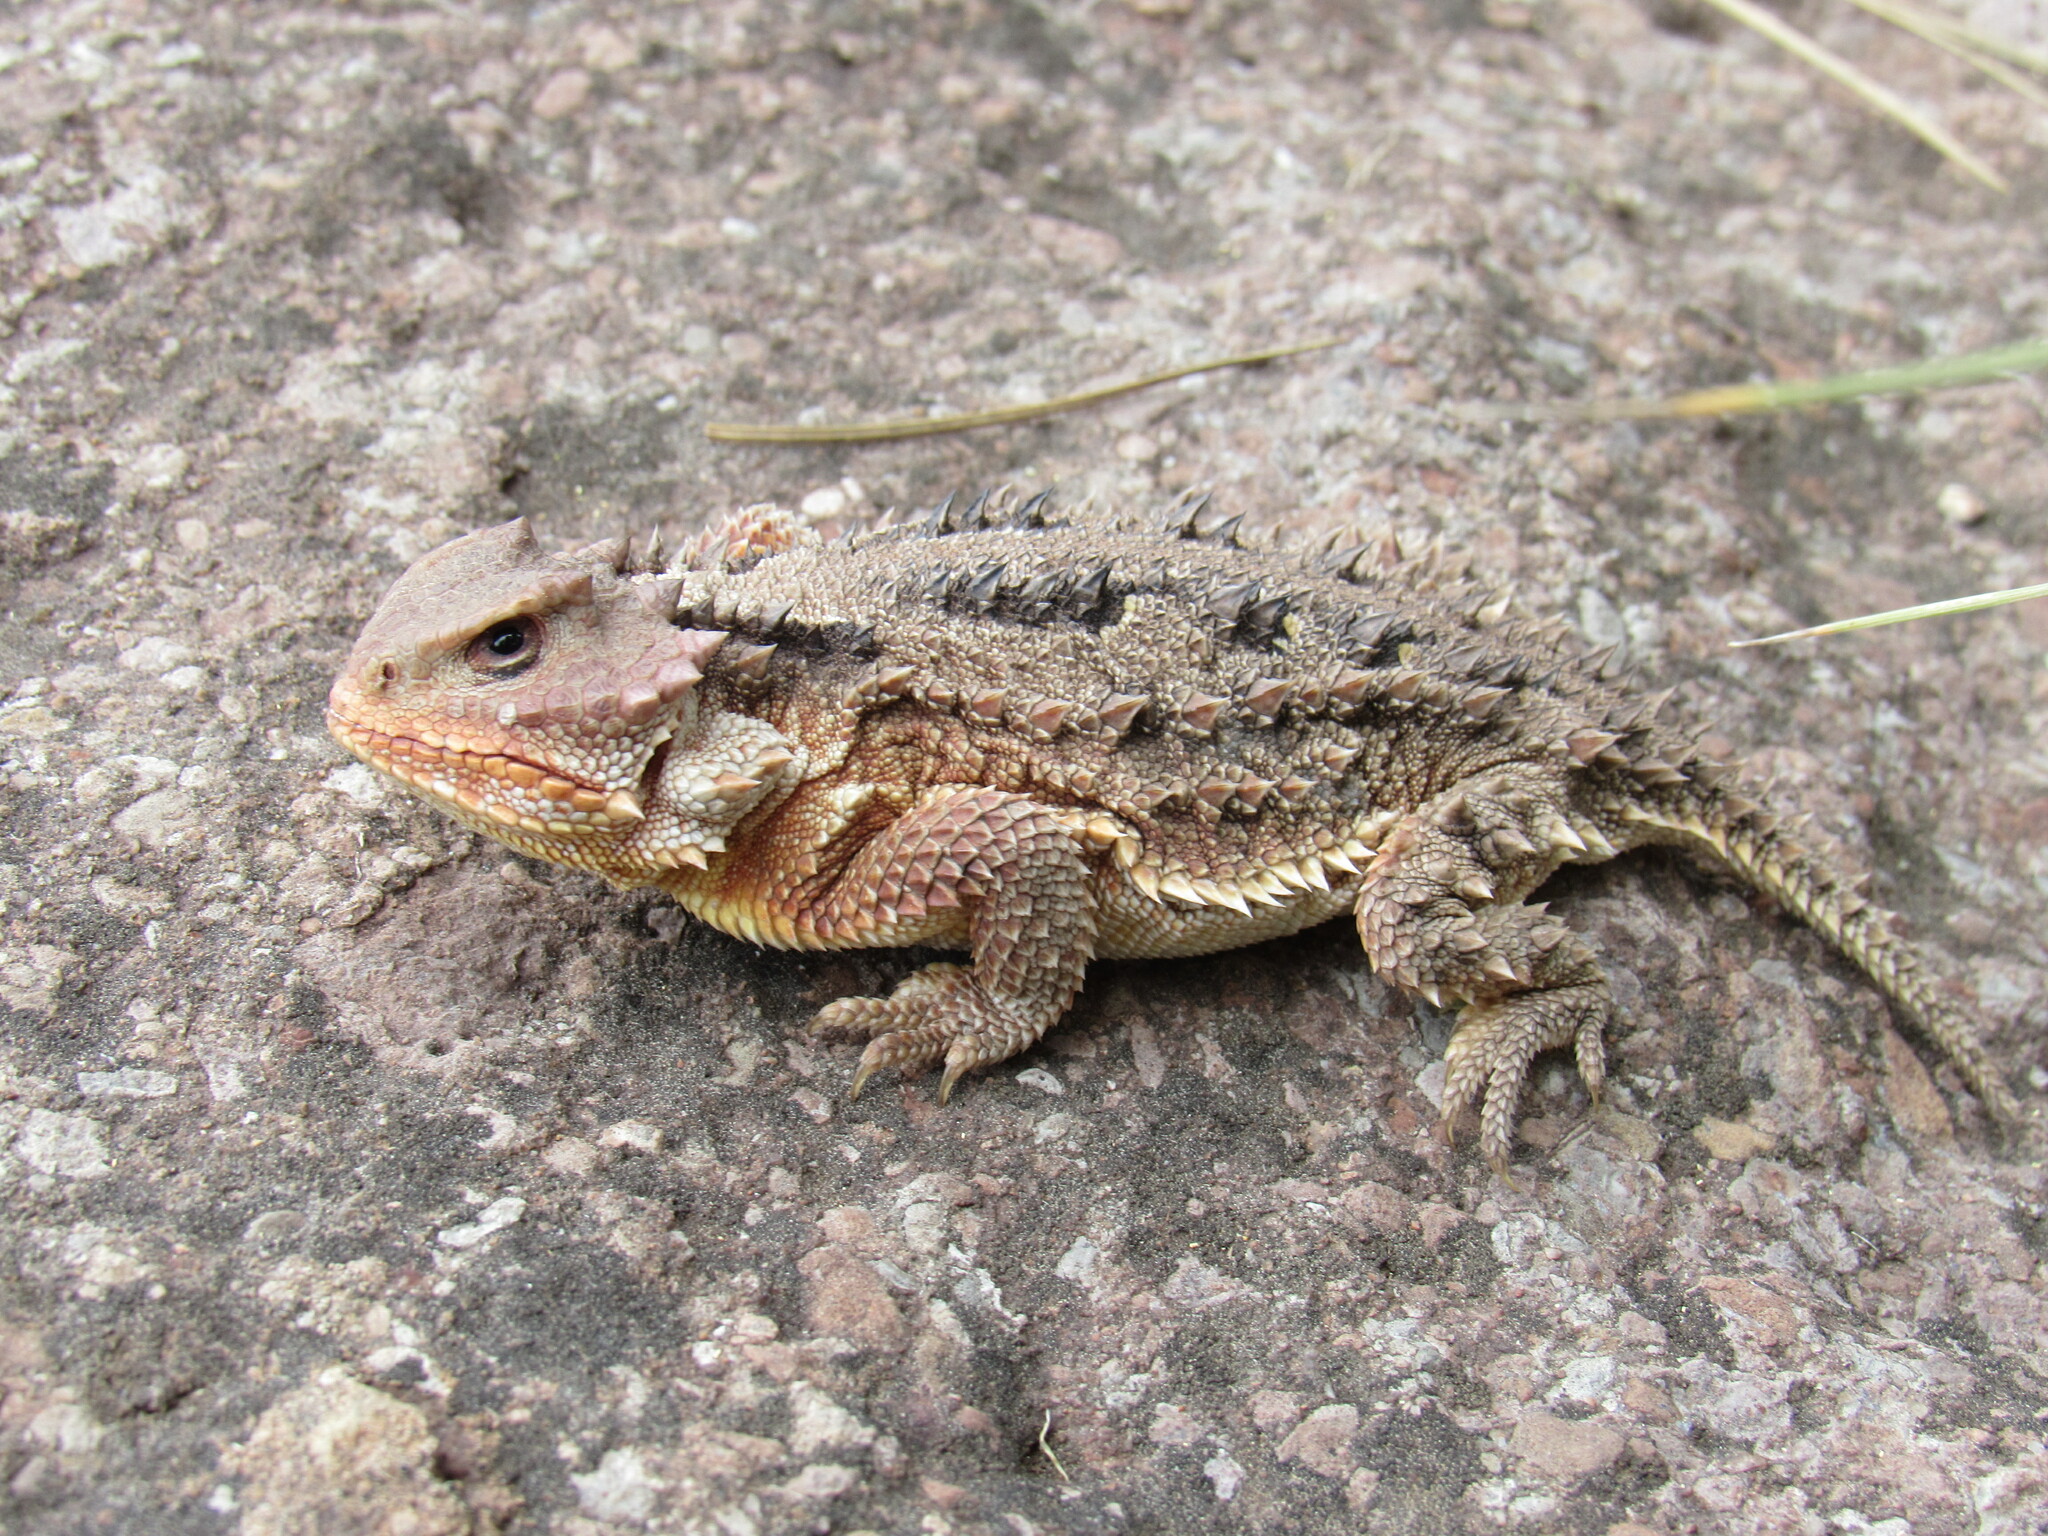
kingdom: Animalia
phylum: Chordata
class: Squamata
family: Phrynosomatidae
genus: Phrynosoma
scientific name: Phrynosoma hernandesi
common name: Greater short-horned lizard
